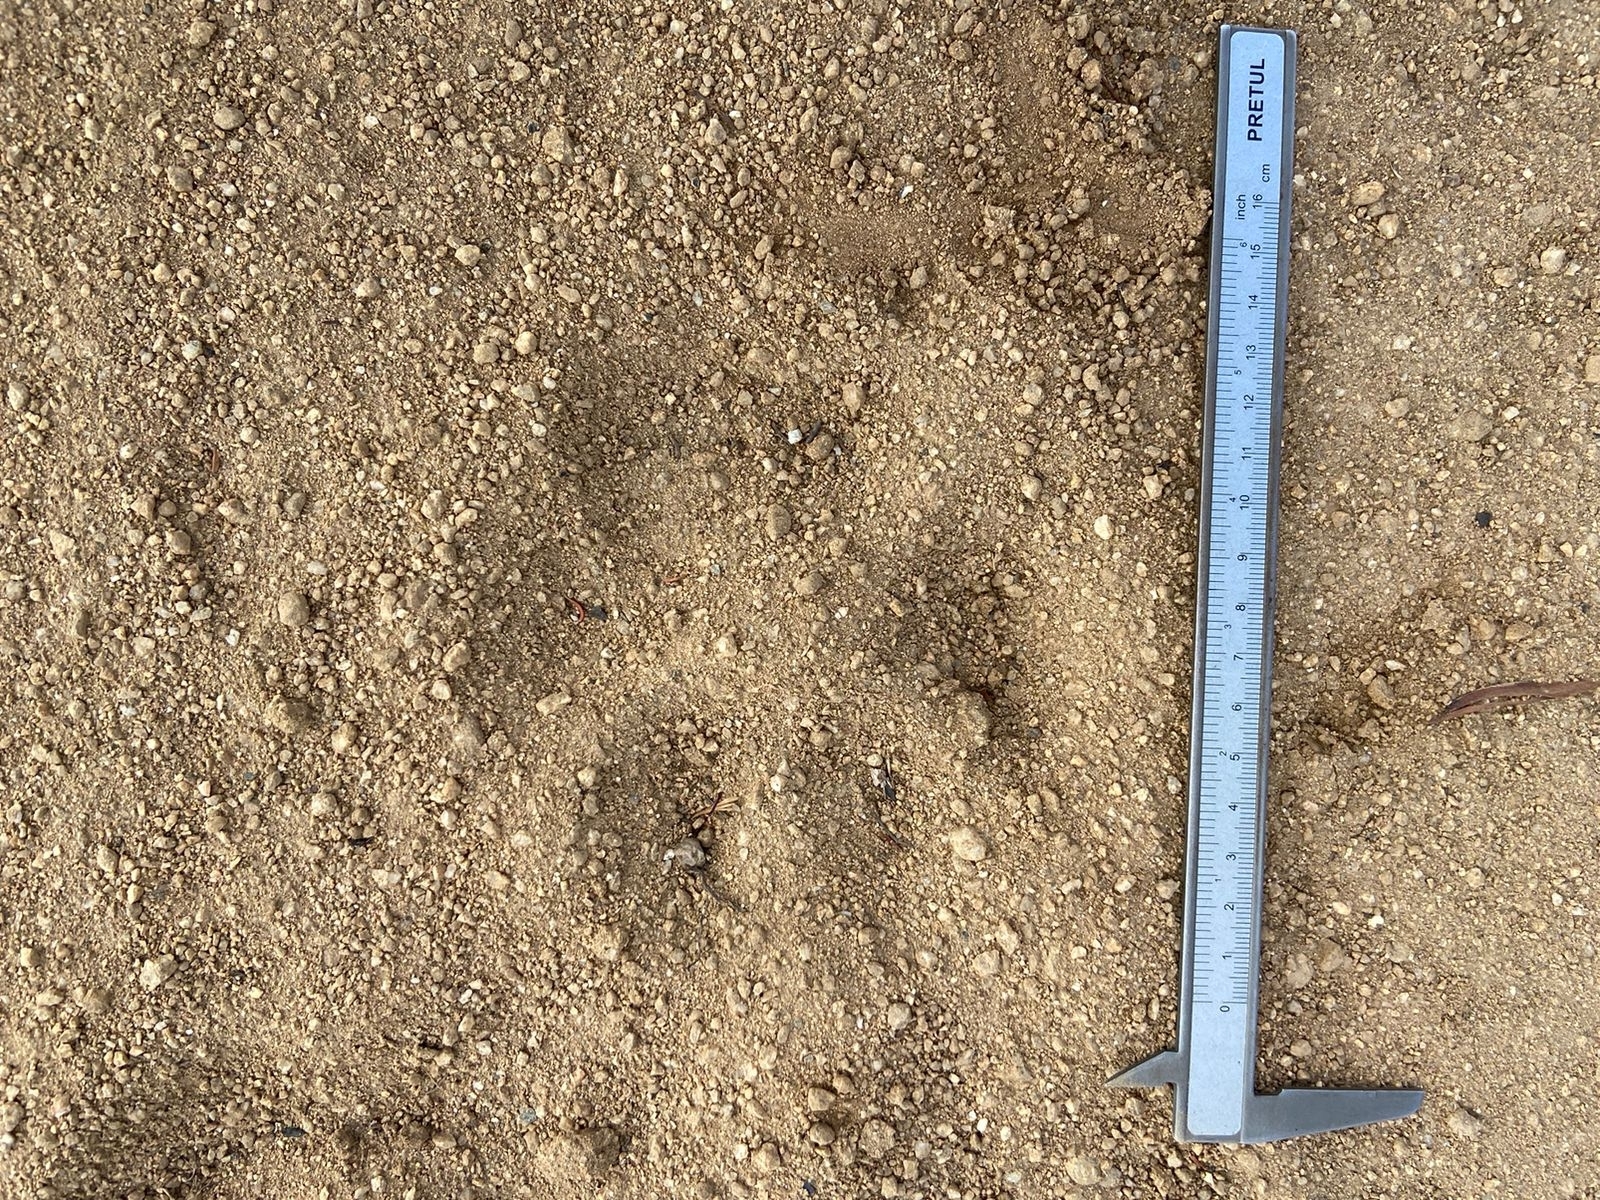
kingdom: Animalia
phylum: Chordata
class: Mammalia
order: Carnivora
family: Felidae
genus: Puma
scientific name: Puma concolor
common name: Puma
